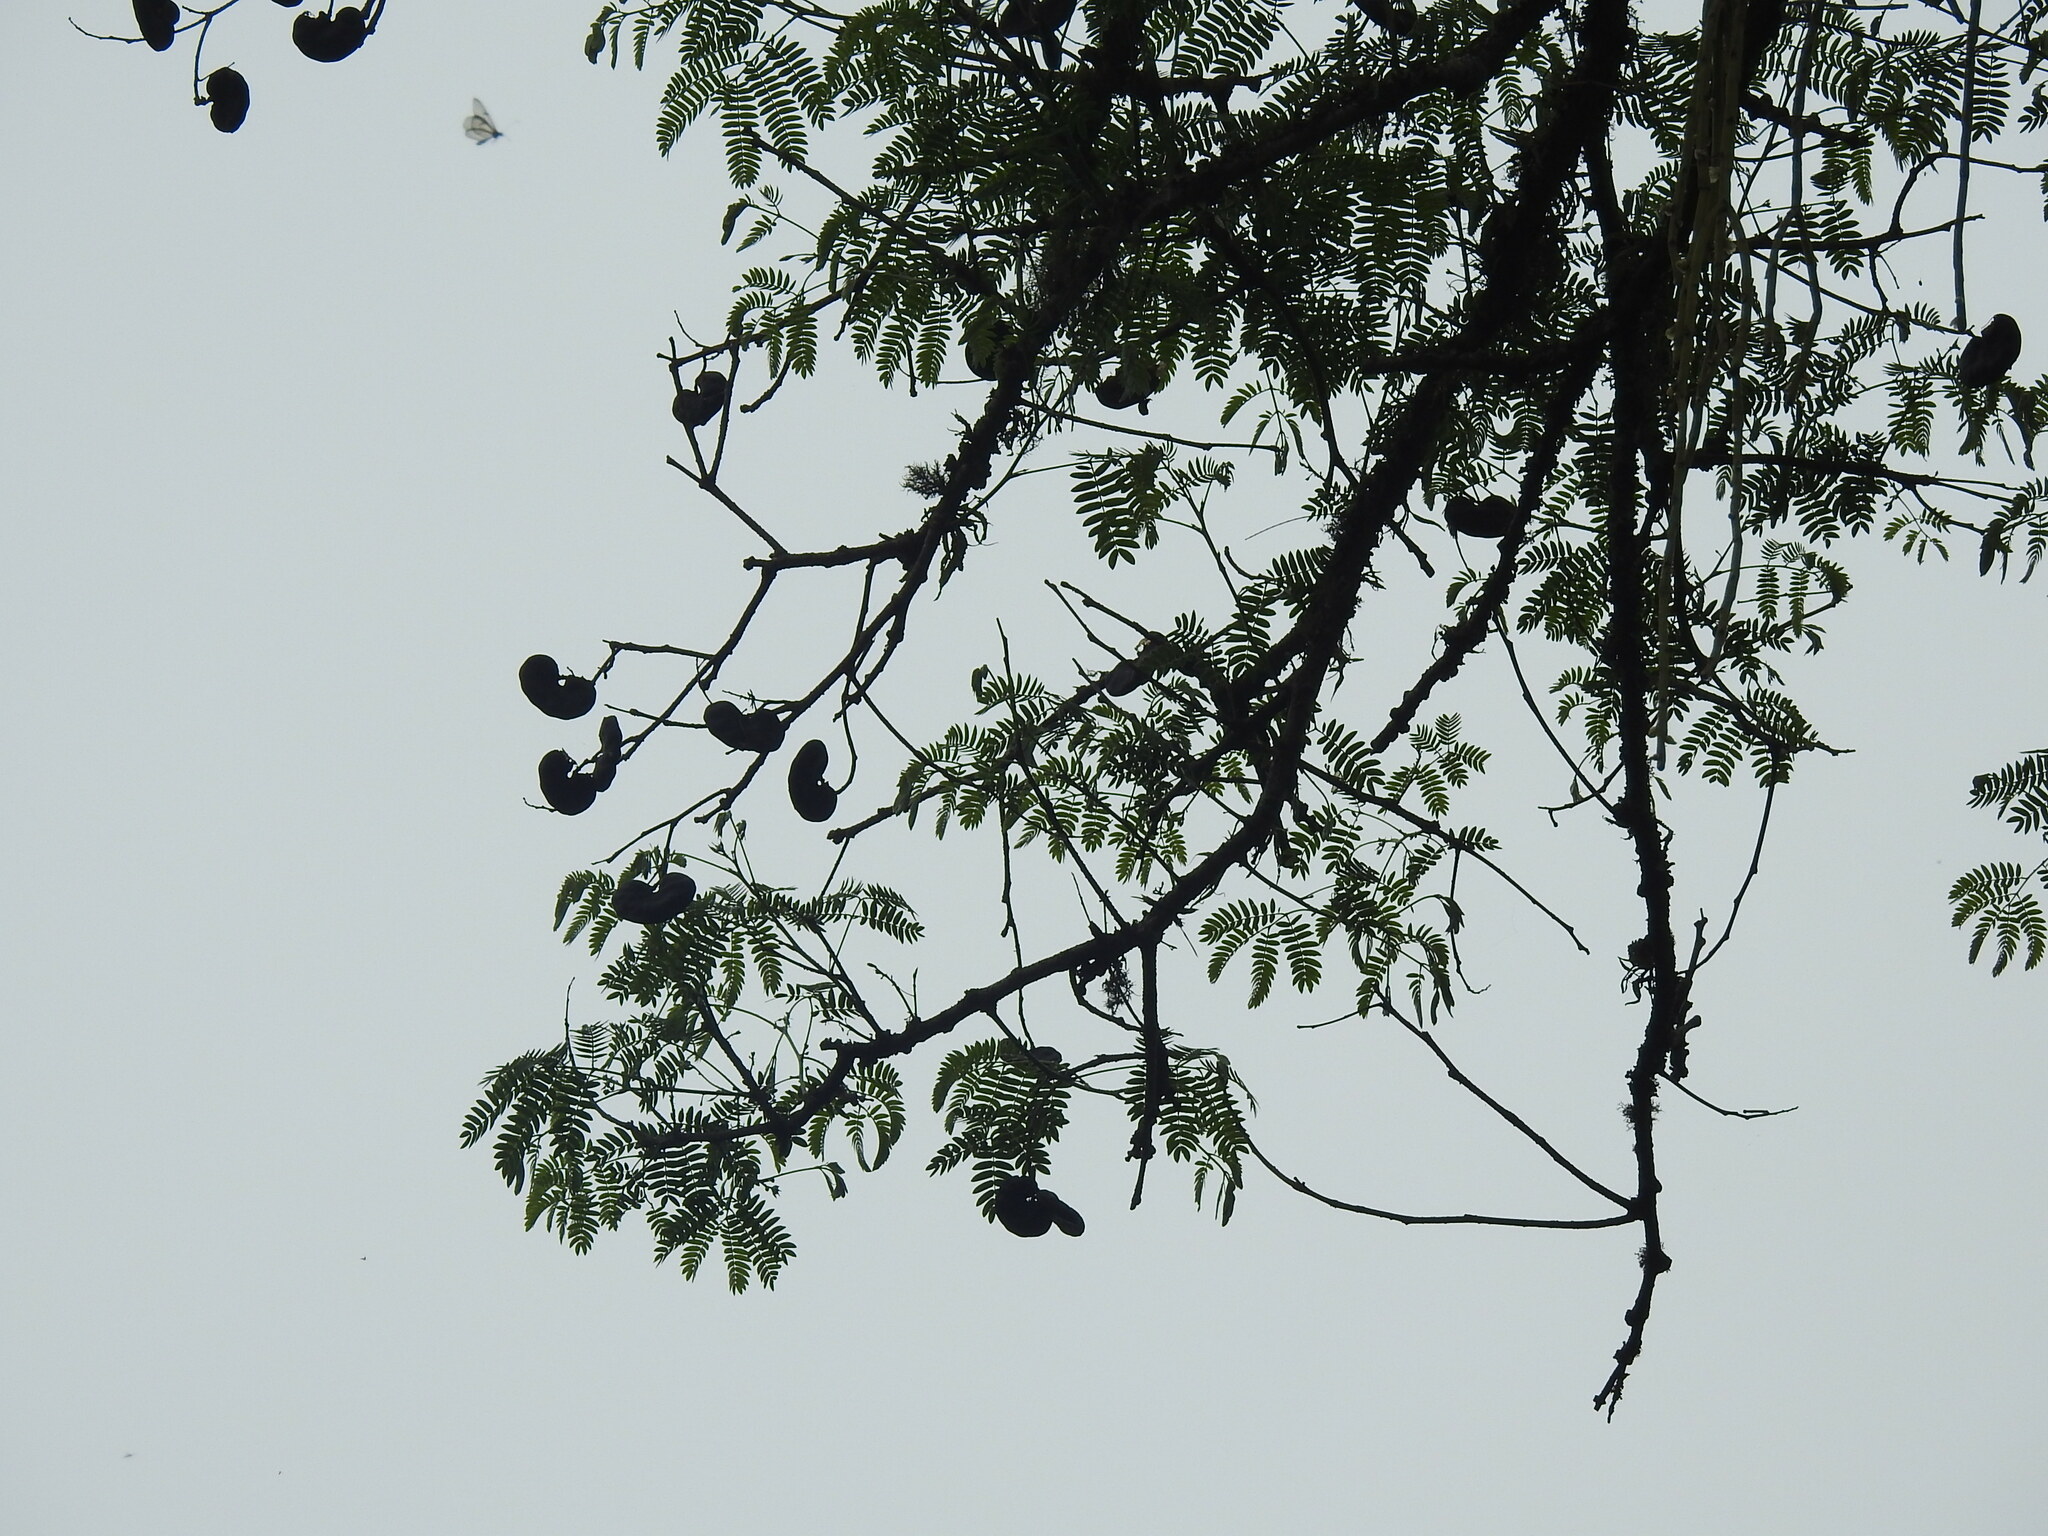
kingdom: Plantae
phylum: Tracheophyta
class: Magnoliopsida
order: Fabales
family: Fabaceae
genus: Enterolobium
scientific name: Enterolobium contortisiliquum
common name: Pacara earpod tree
